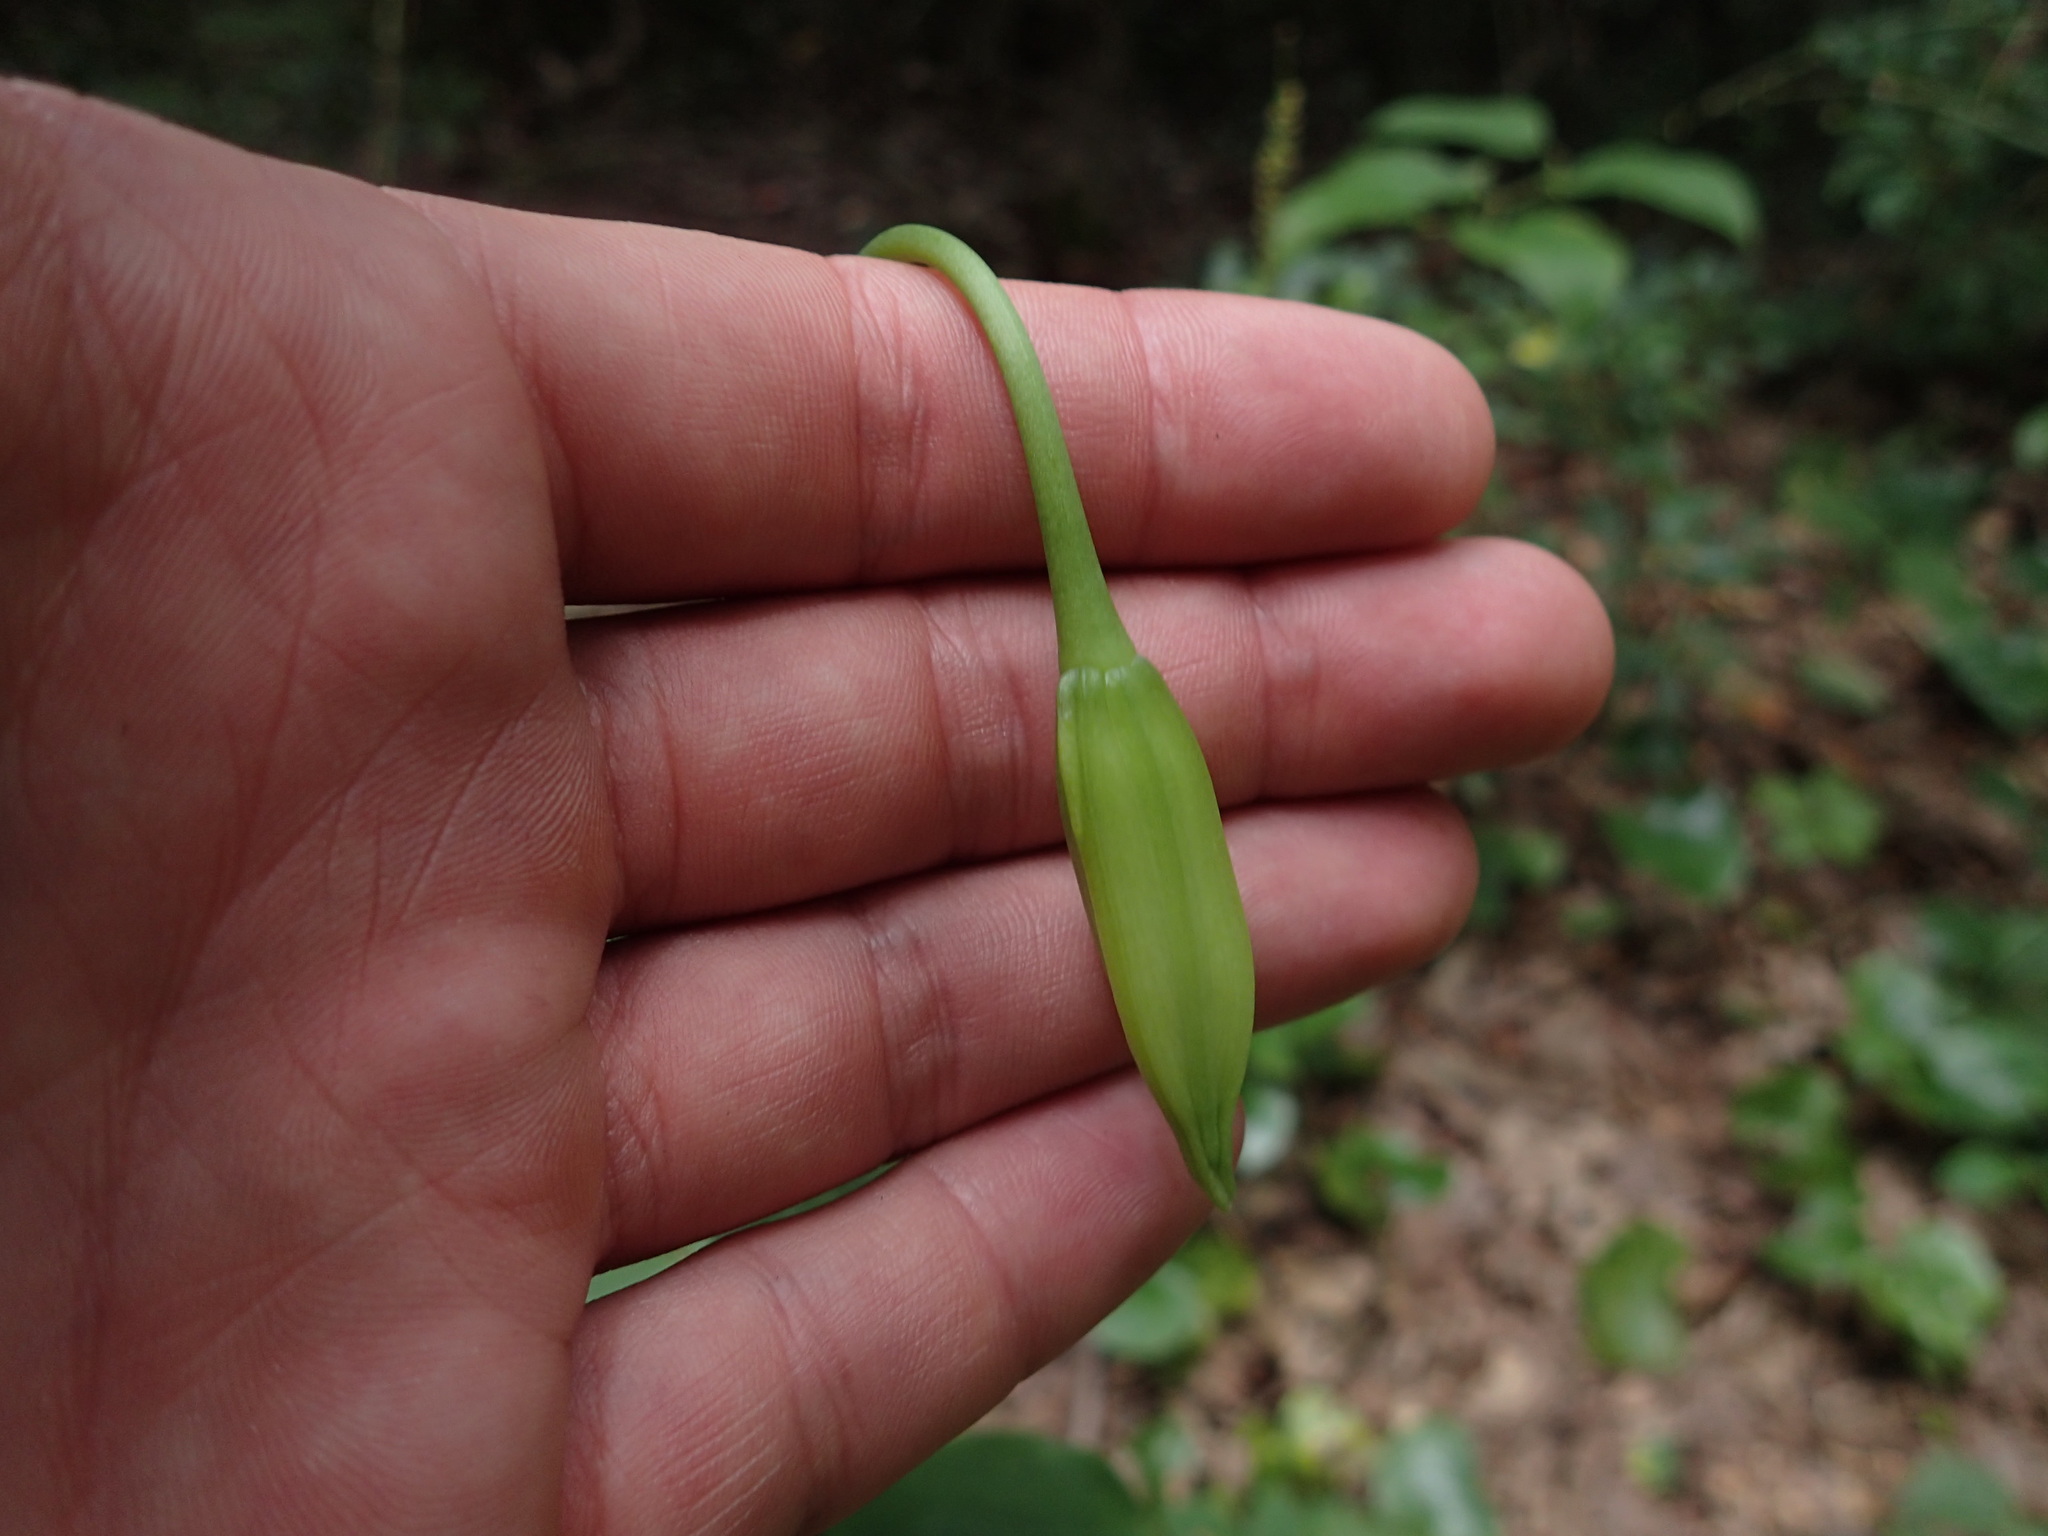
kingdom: Plantae
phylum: Tracheophyta
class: Liliopsida
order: Liliales
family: Liliaceae
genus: Lilium
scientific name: Lilium michauxii
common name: Carolina lily
